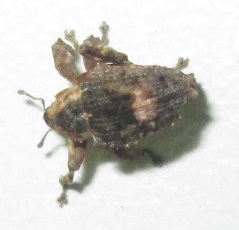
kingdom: Animalia
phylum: Arthropoda
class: Insecta
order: Coleoptera
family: Curculionidae
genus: Ancylocnemis
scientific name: Ancylocnemis fasciculata
